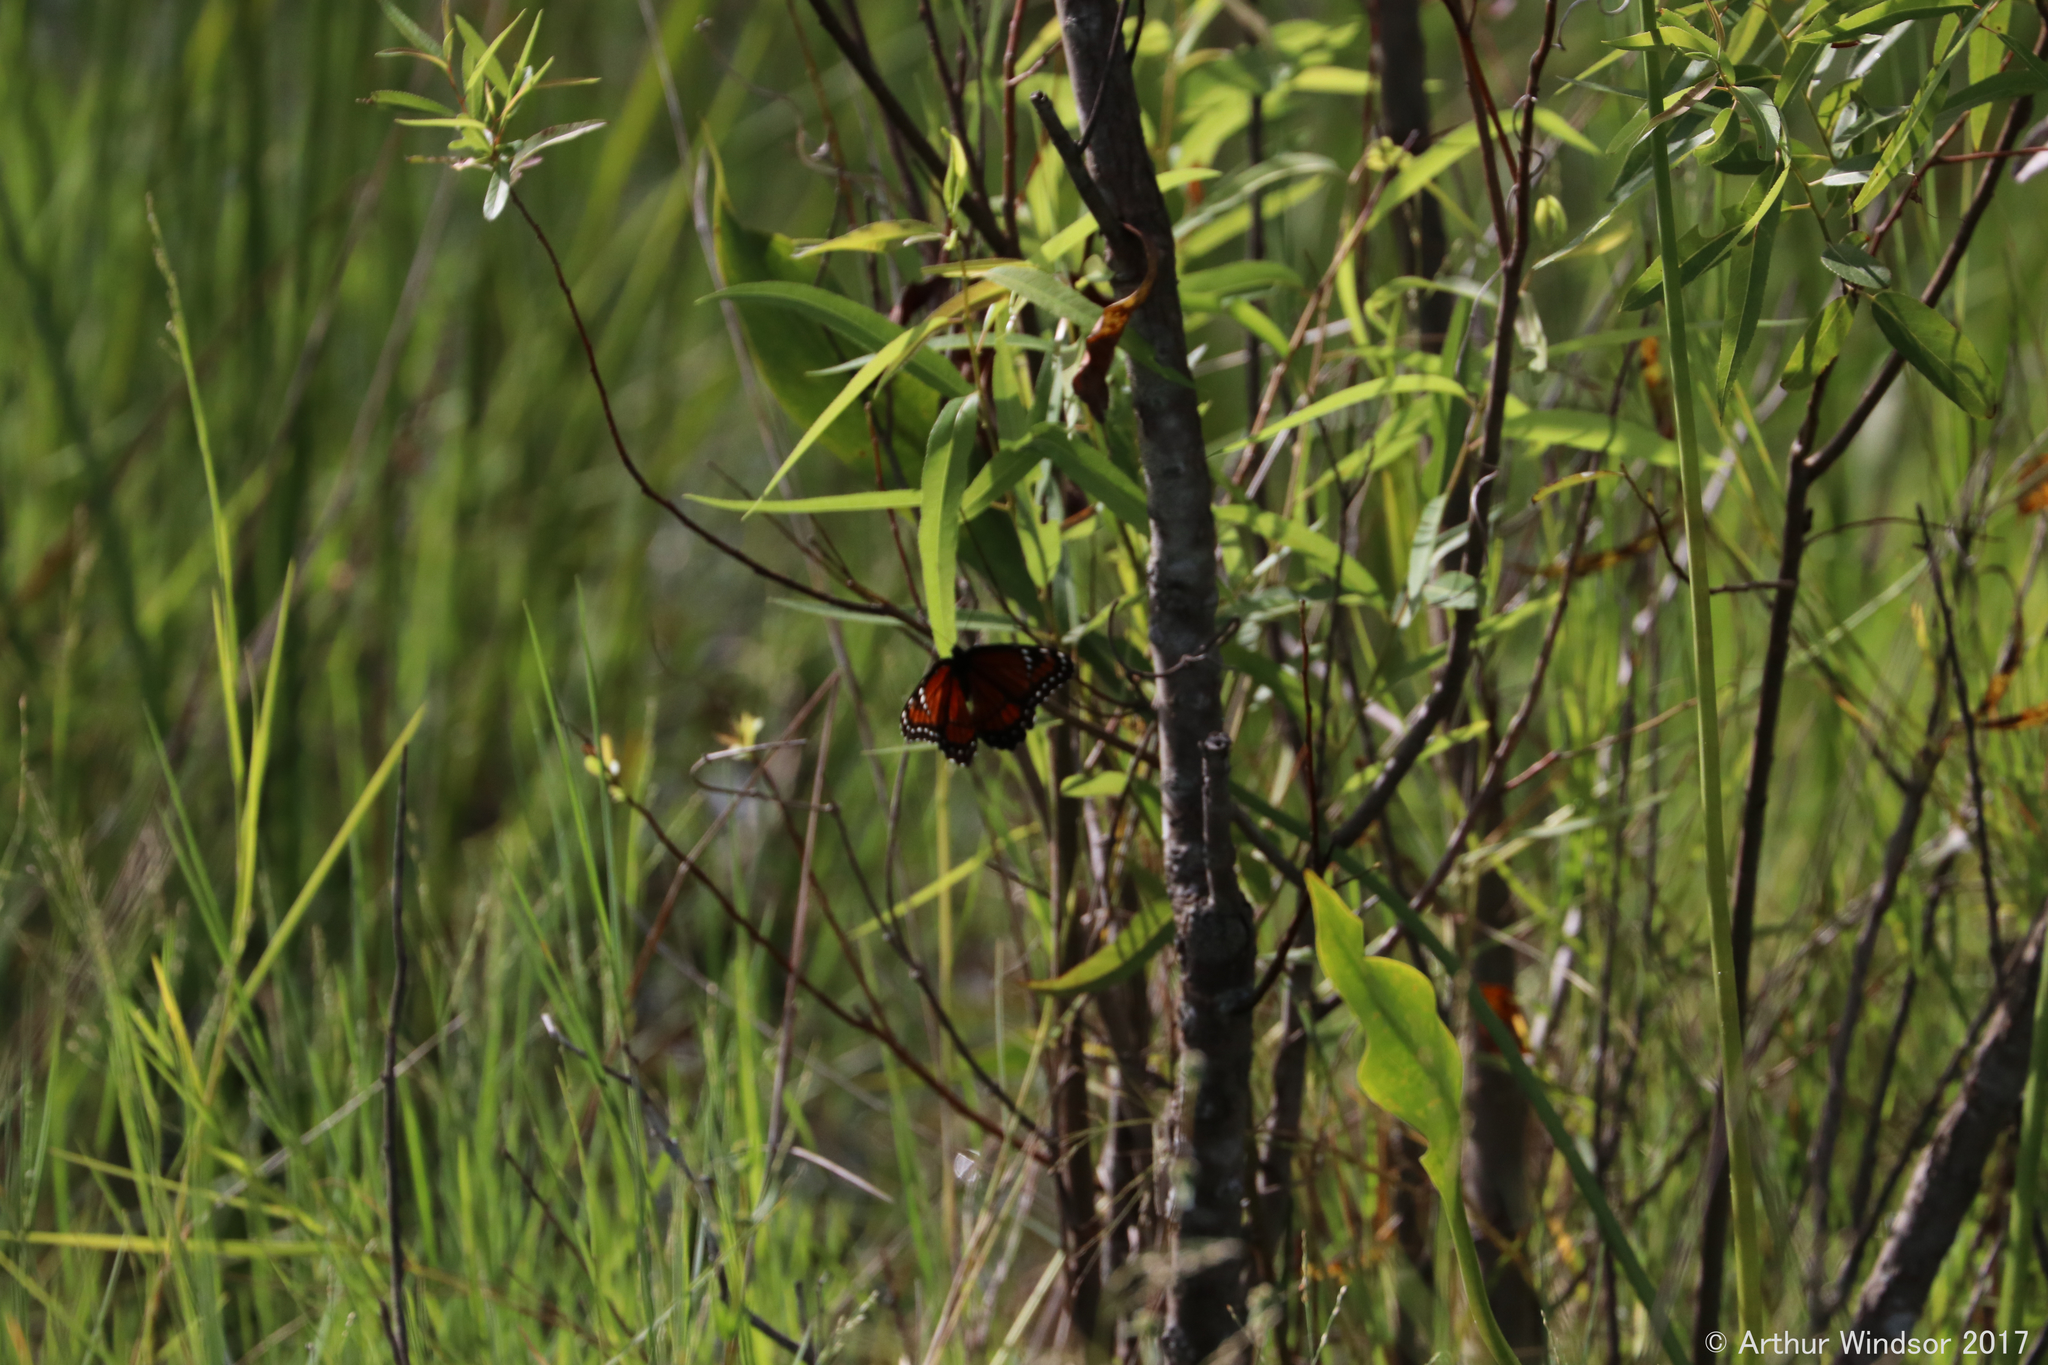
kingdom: Animalia
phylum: Arthropoda
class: Insecta
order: Lepidoptera
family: Nymphalidae
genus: Limenitis
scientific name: Limenitis archippus
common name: Viceroy
